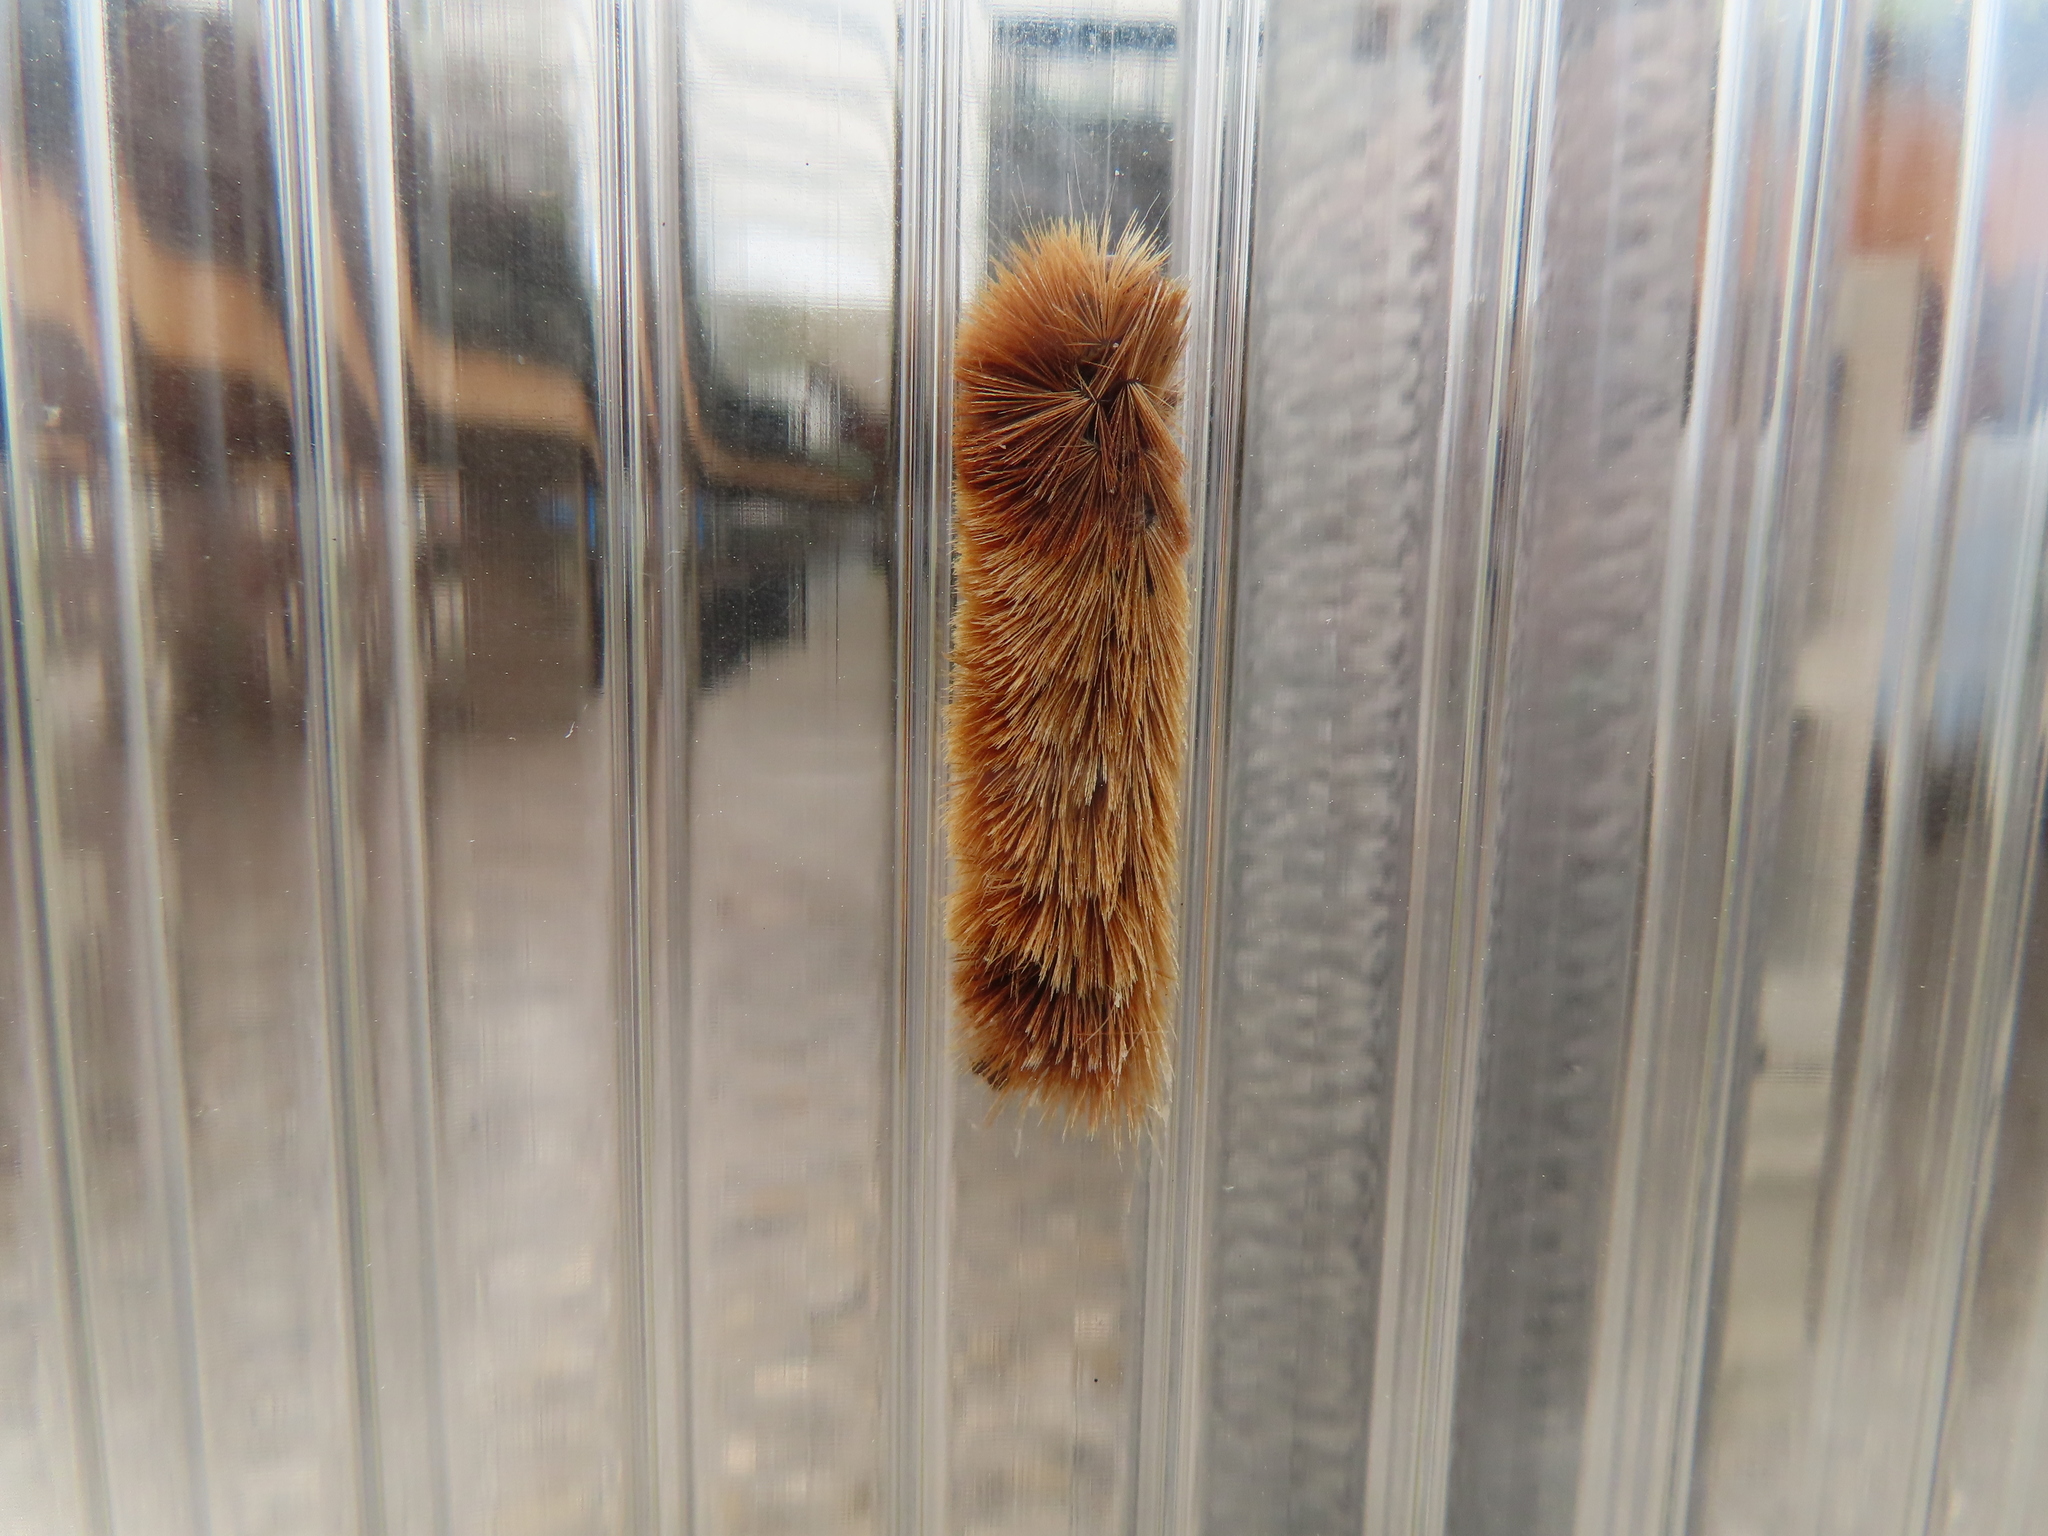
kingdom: Animalia
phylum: Arthropoda
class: Insecta
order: Lepidoptera
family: Erebidae
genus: Pyrrharctia
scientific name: Pyrrharctia isabella
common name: Isabella tiger moth
